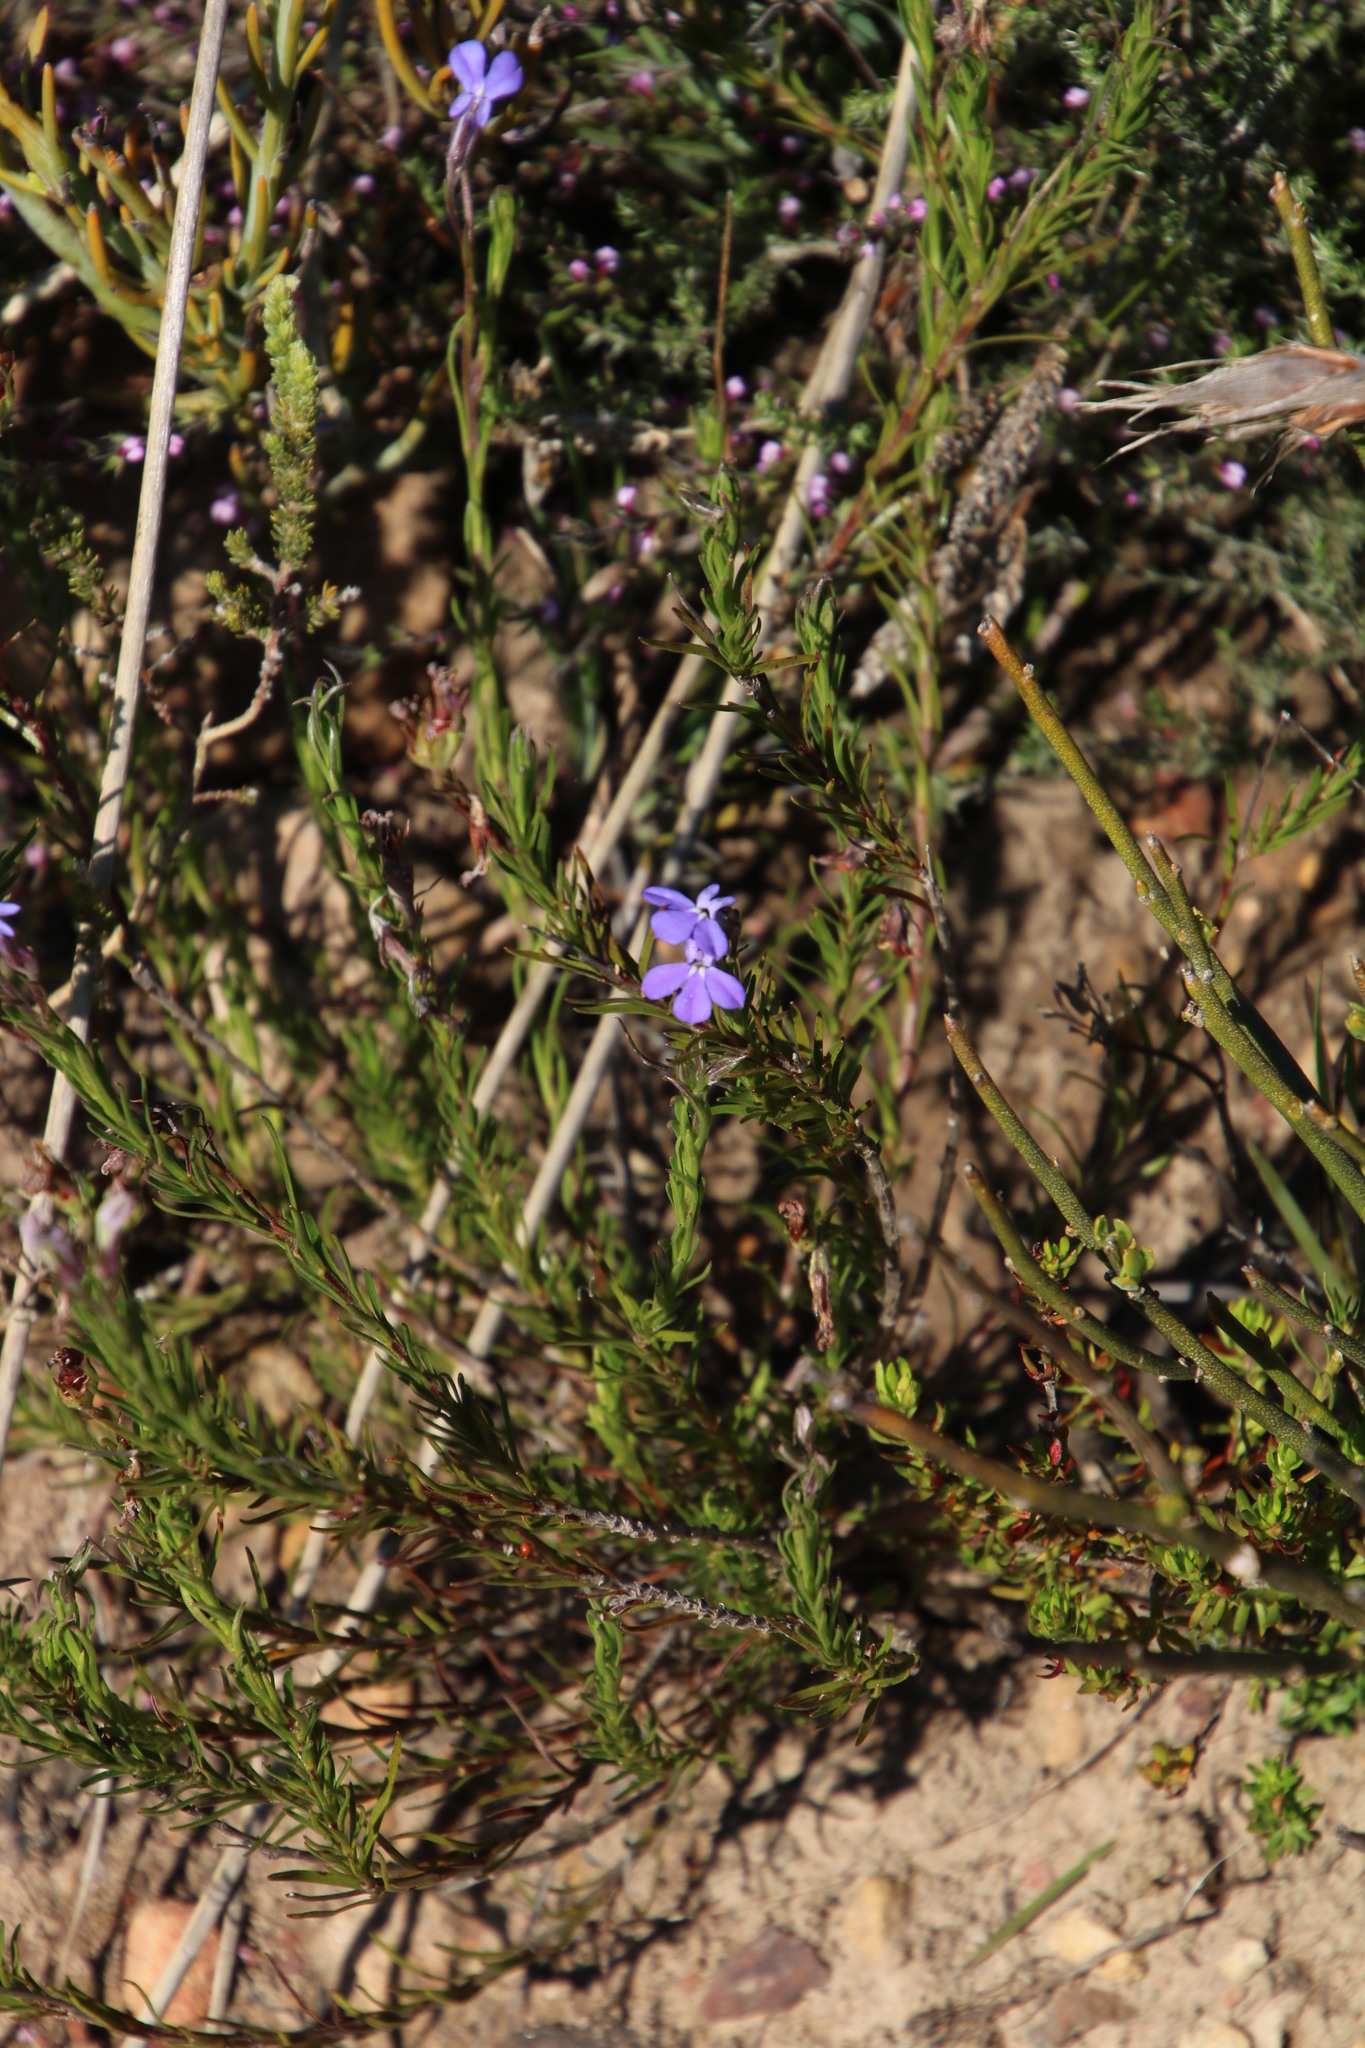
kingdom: Plantae
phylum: Tracheophyta
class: Magnoliopsida
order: Asterales
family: Campanulaceae
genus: Lobelia
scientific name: Lobelia pinifolia
